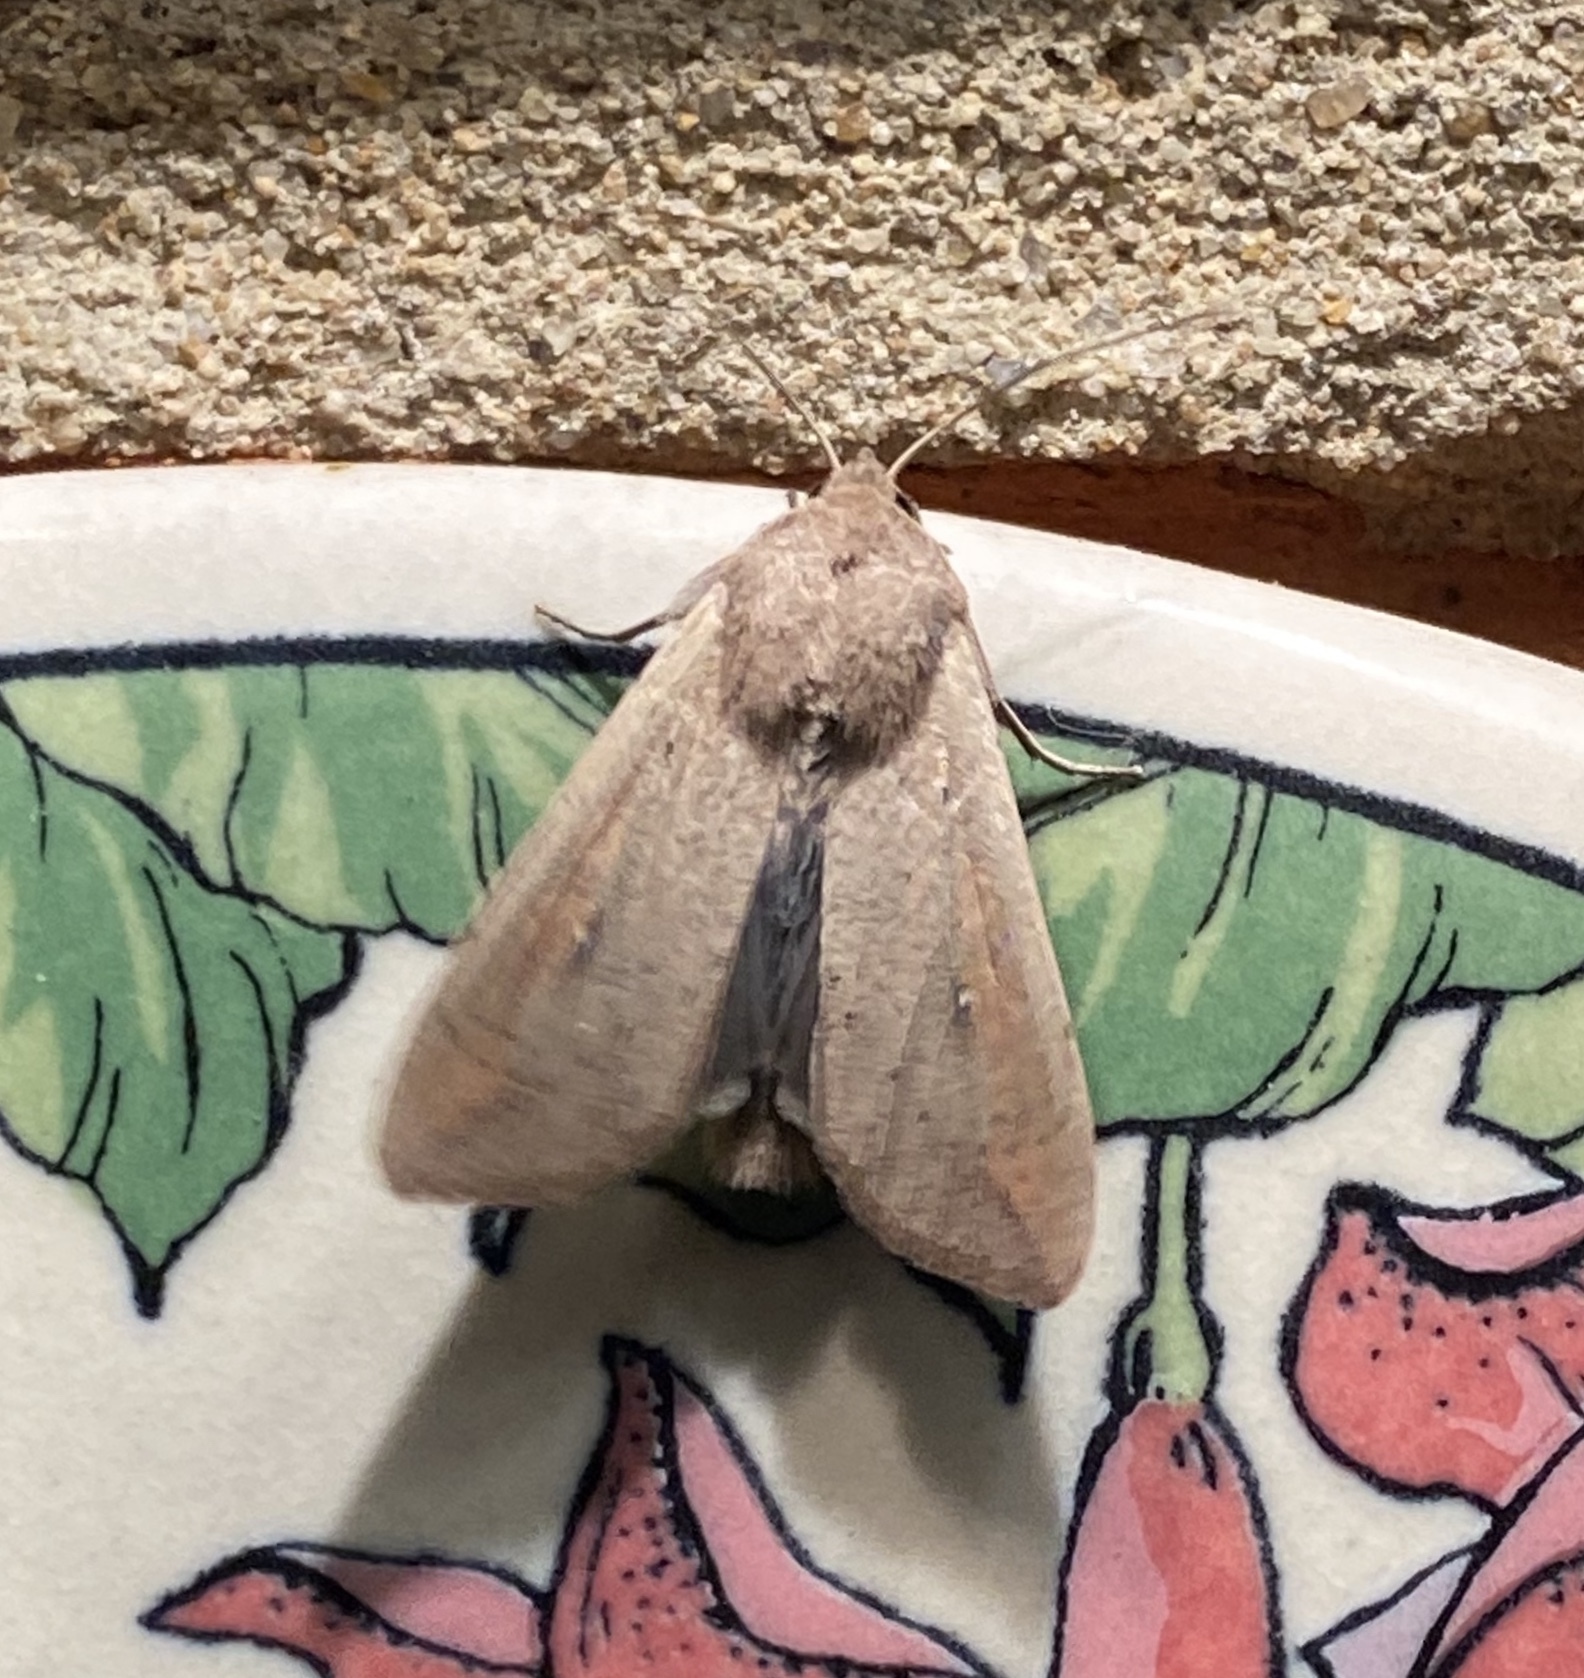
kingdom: Animalia
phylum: Arthropoda
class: Insecta
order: Lepidoptera
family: Noctuidae
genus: Mythimna
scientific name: Mythimna unipuncta
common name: White-speck
